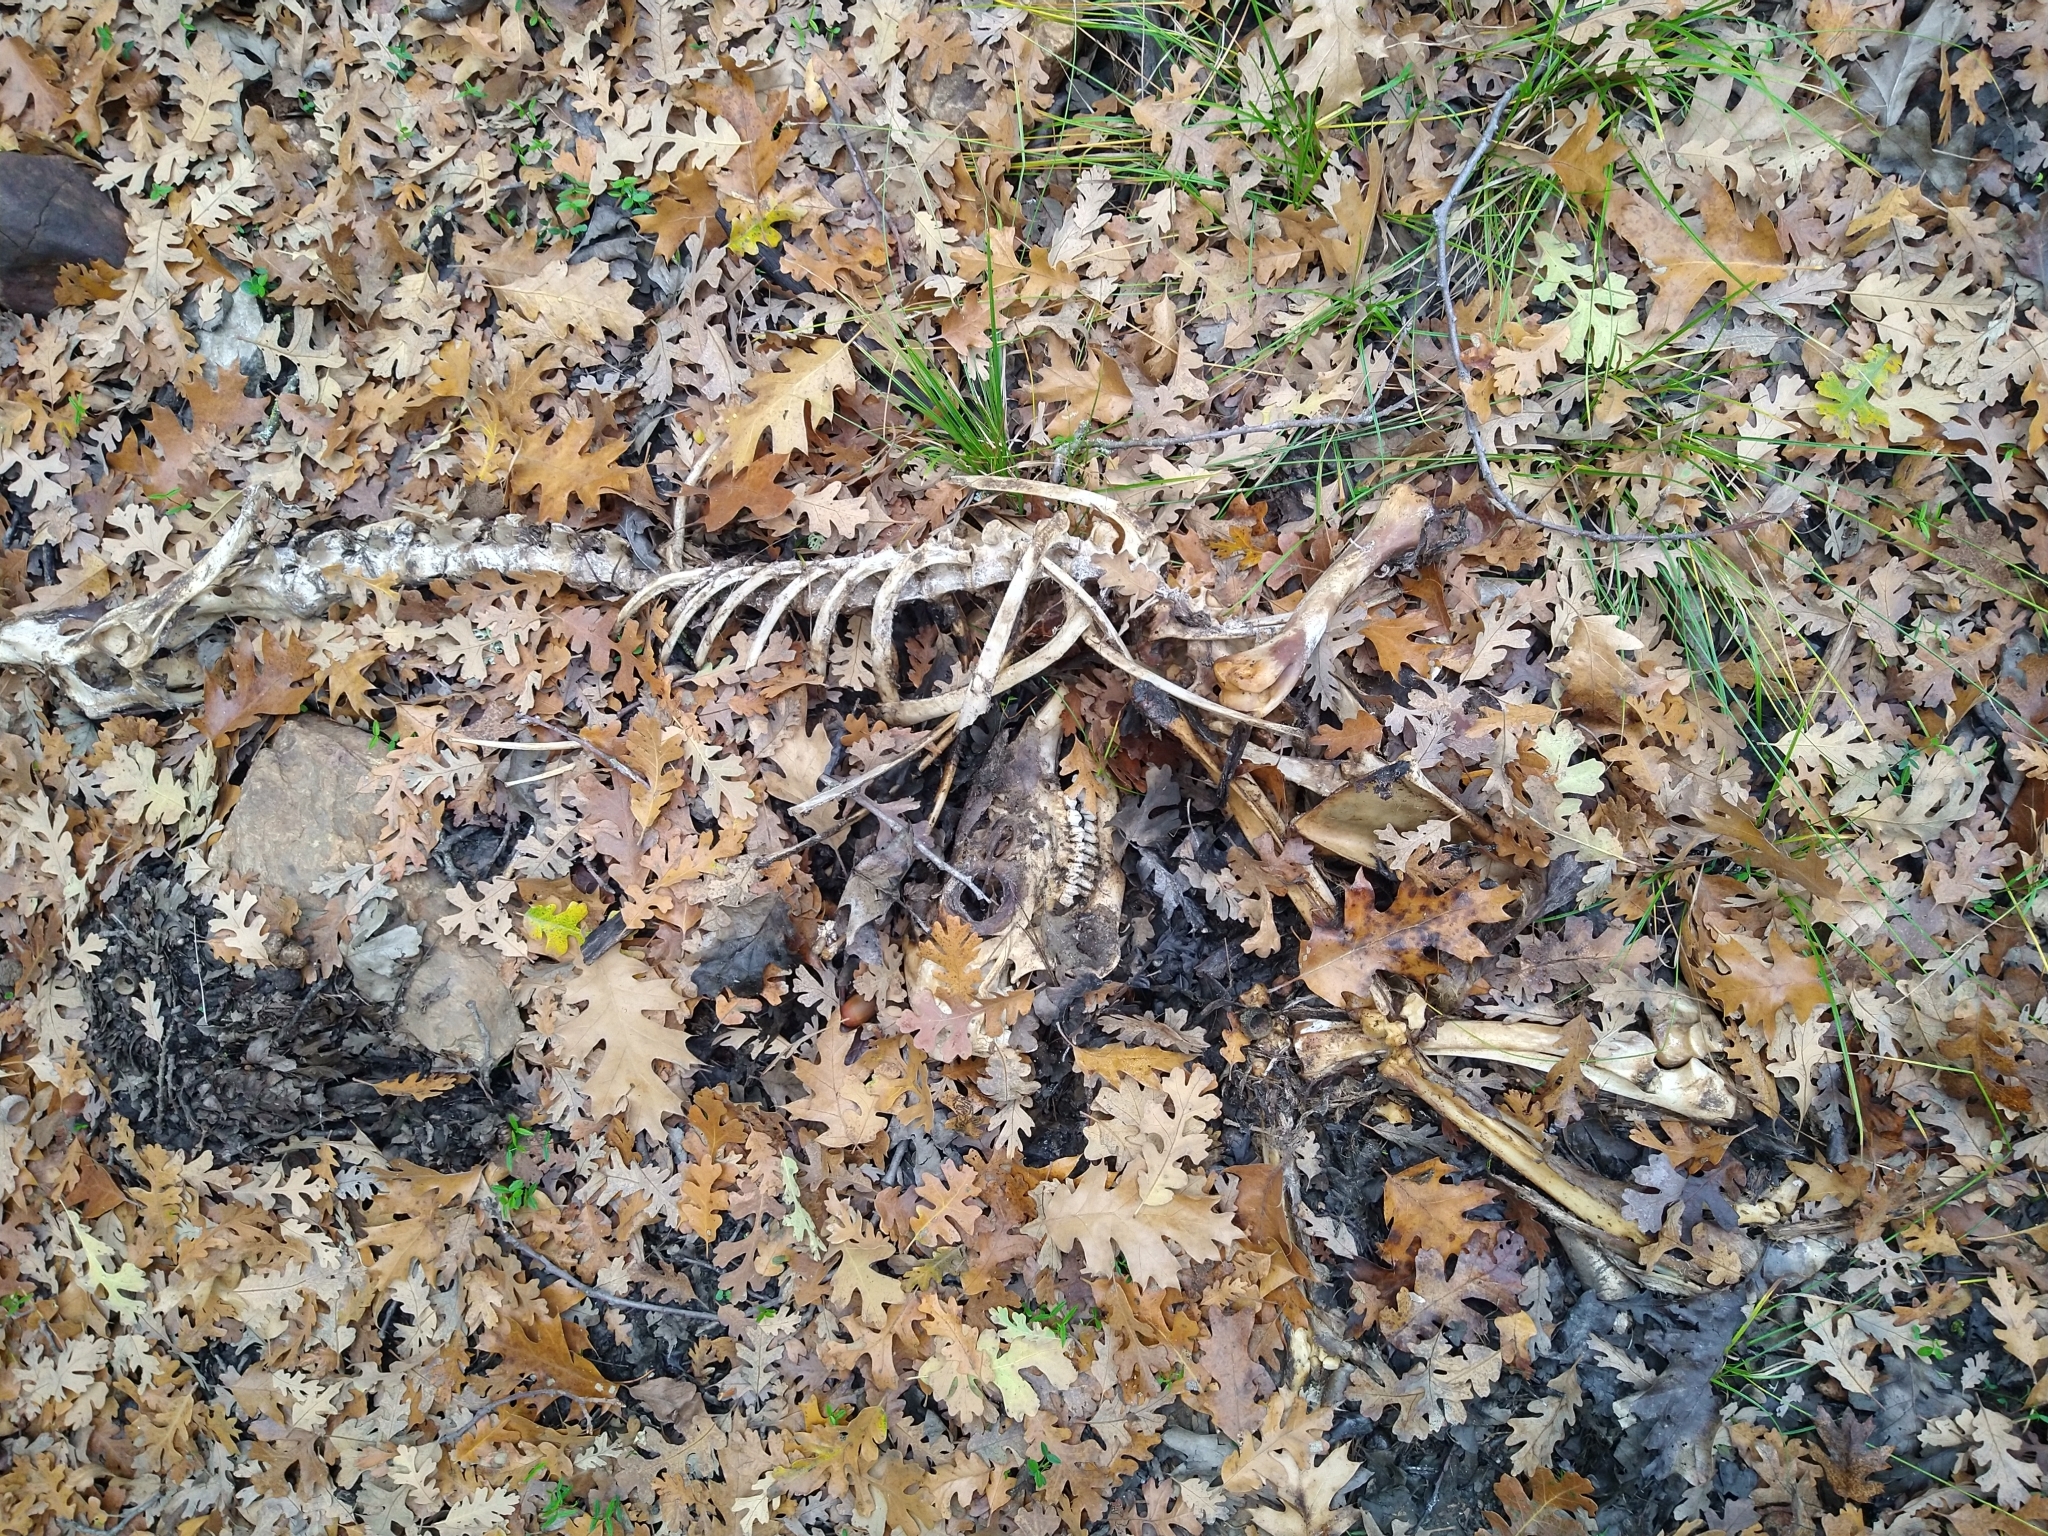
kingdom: Animalia
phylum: Chordata
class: Mammalia
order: Artiodactyla
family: Cervidae
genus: Odocoileus
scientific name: Odocoileus hemionus
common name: Mule deer
